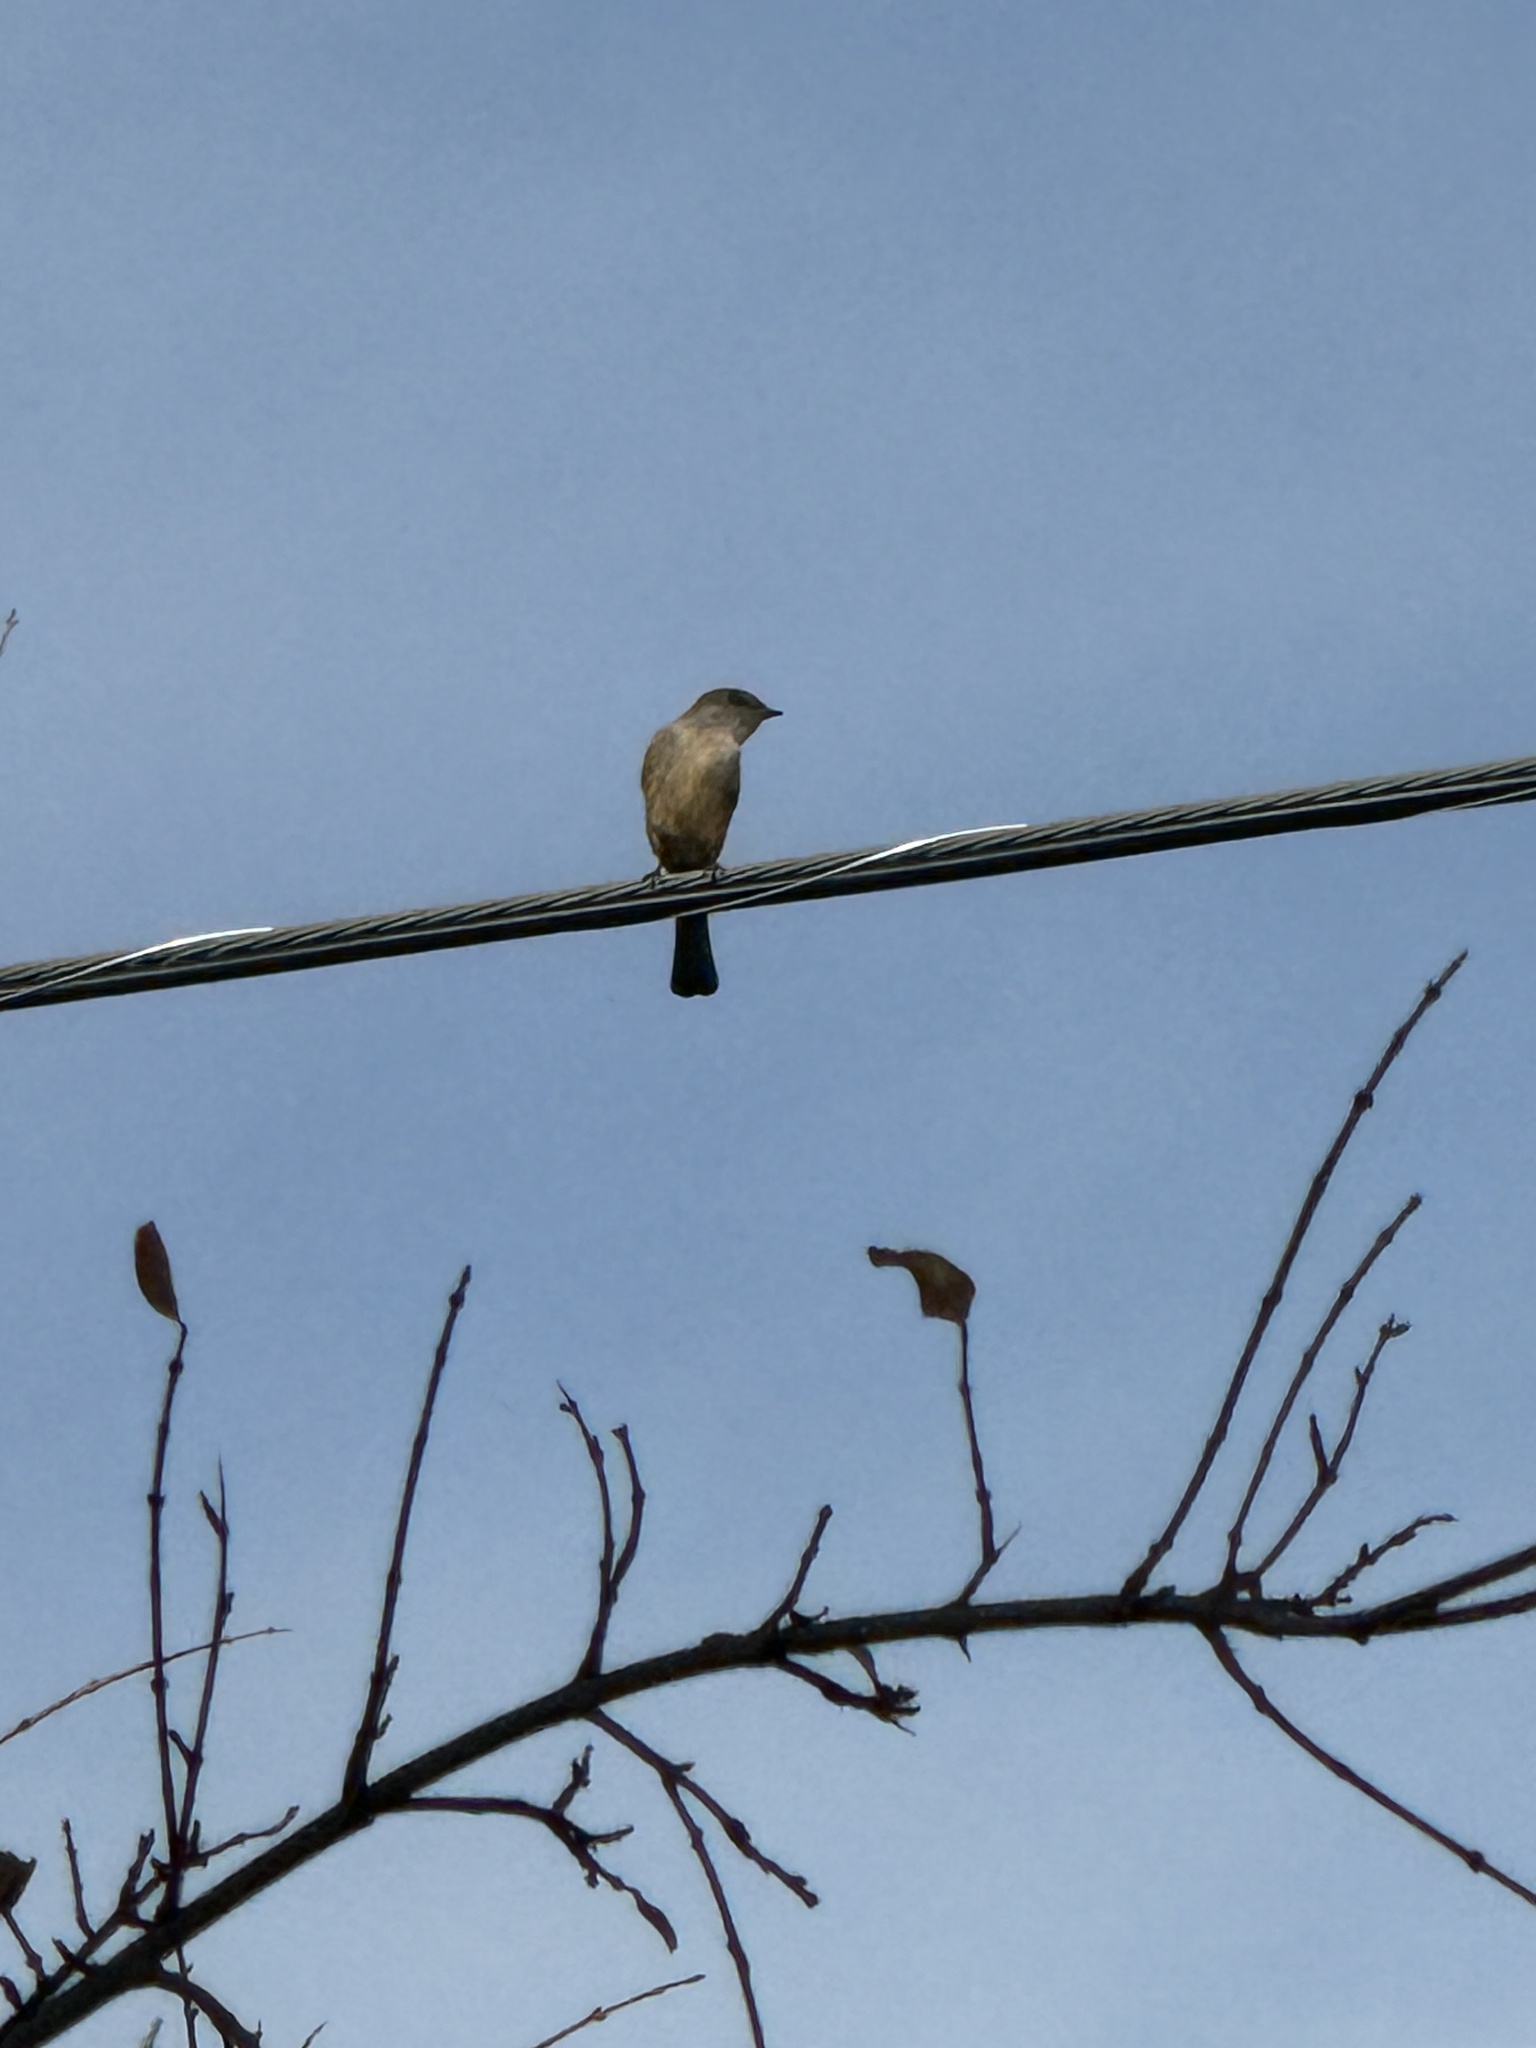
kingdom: Animalia
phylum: Chordata
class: Aves
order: Passeriformes
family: Tyrannidae
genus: Sayornis
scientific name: Sayornis saya
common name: Say's phoebe
